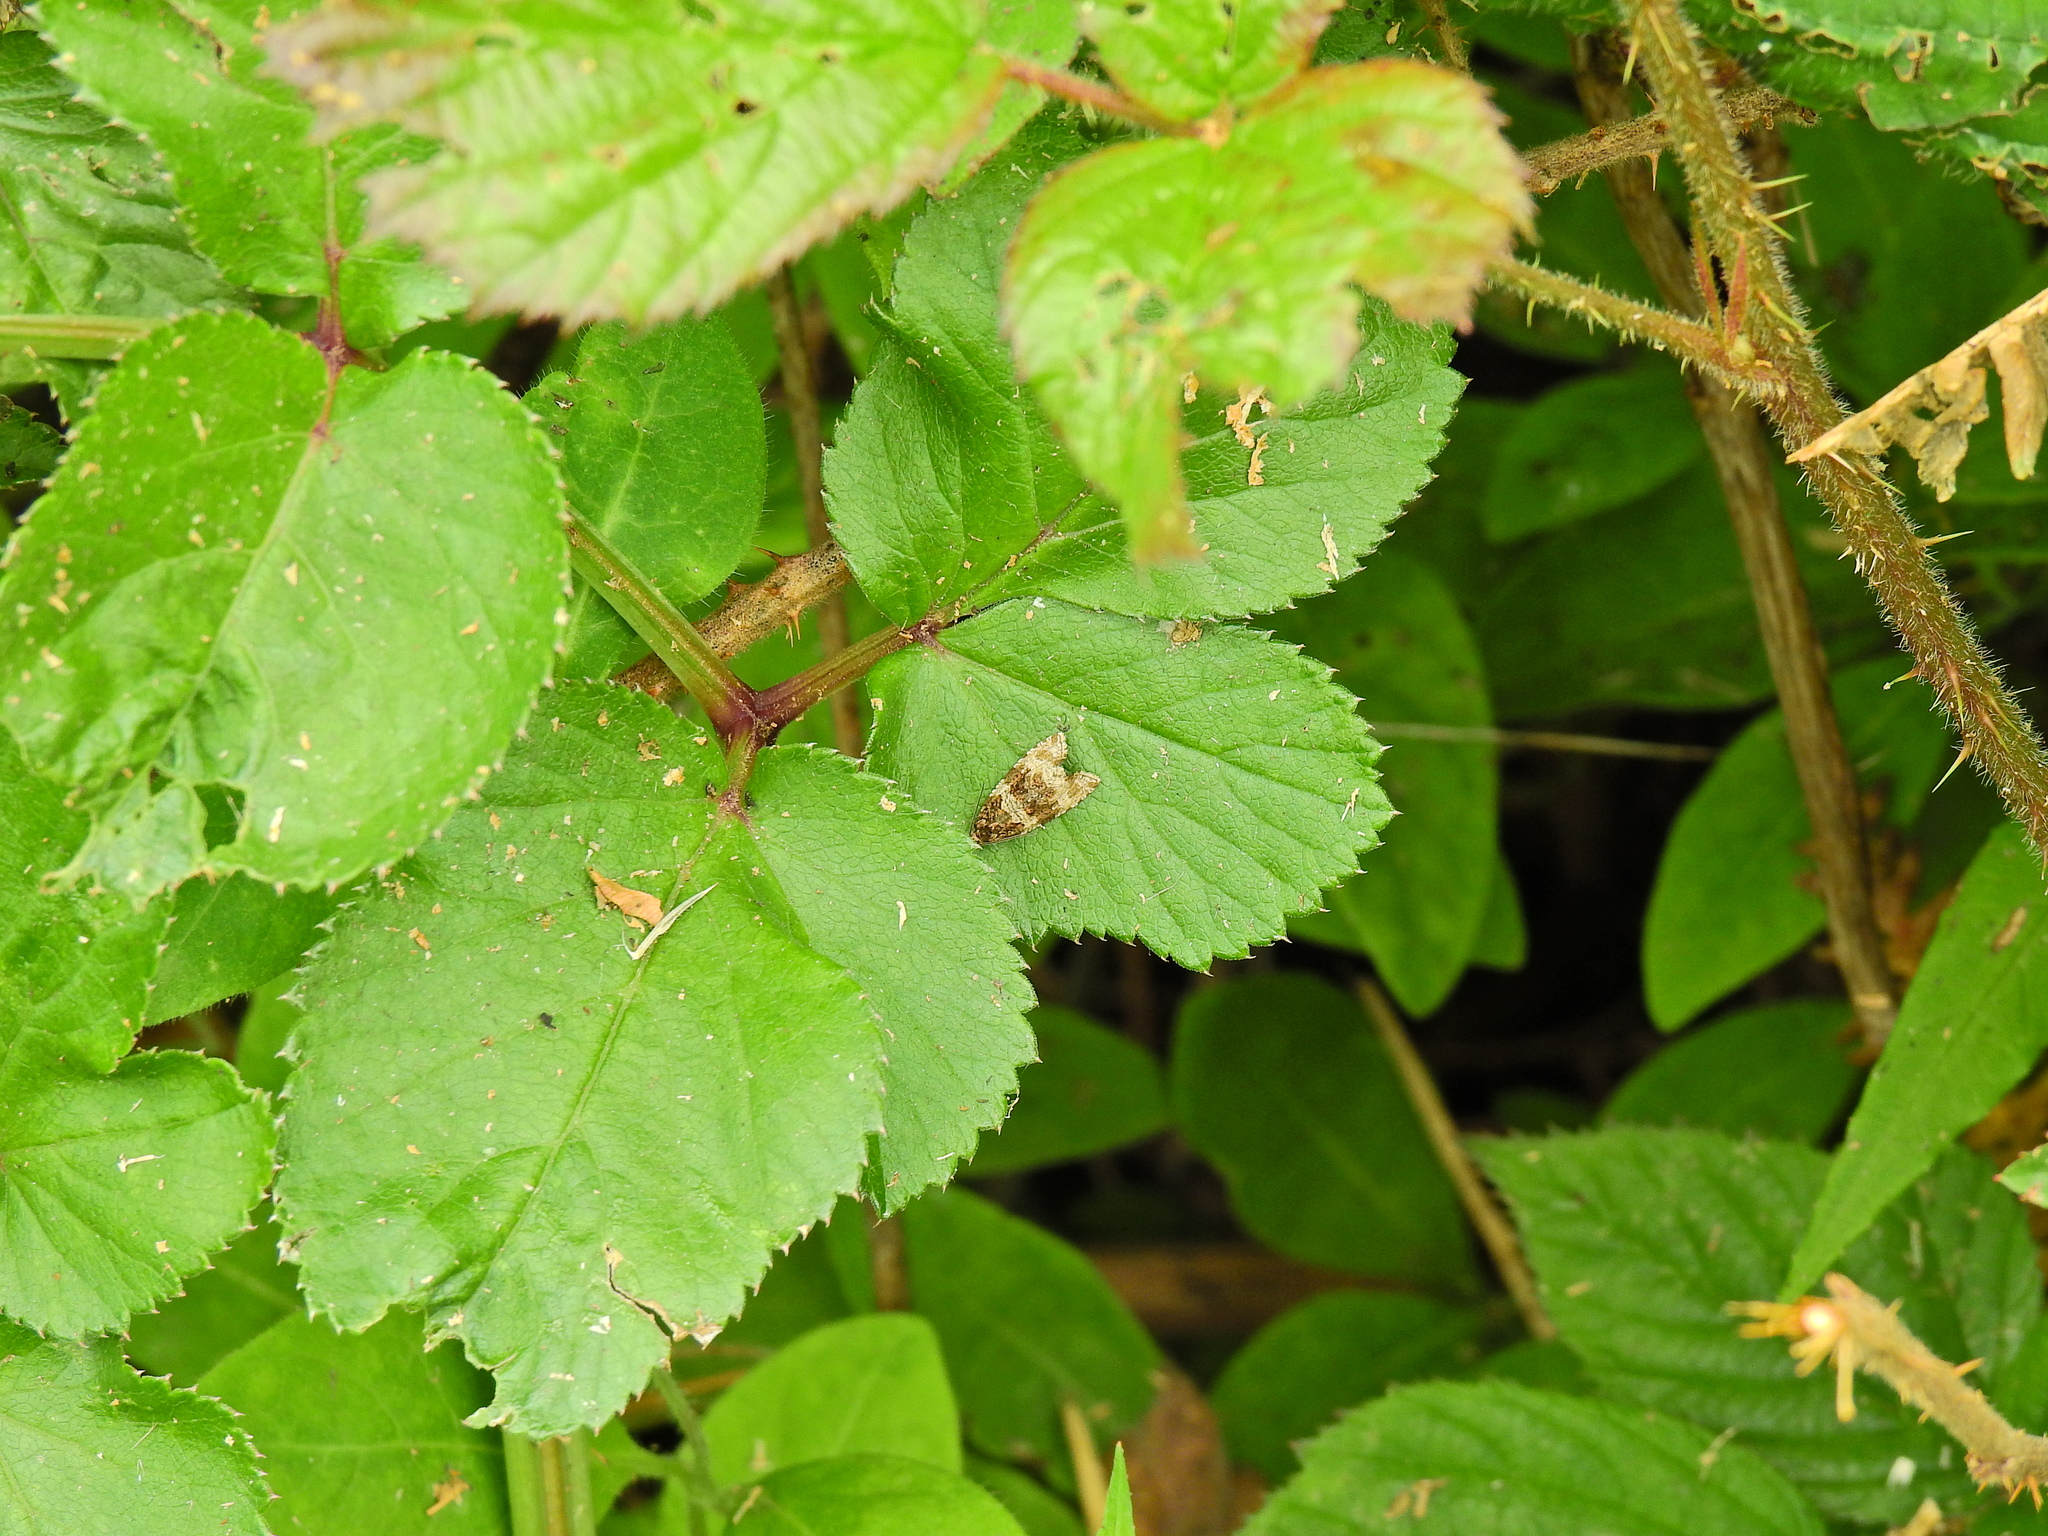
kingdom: Animalia
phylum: Arthropoda
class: Insecta
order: Lepidoptera
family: Tortricidae
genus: Syricoris
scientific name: Syricoris lacunana
